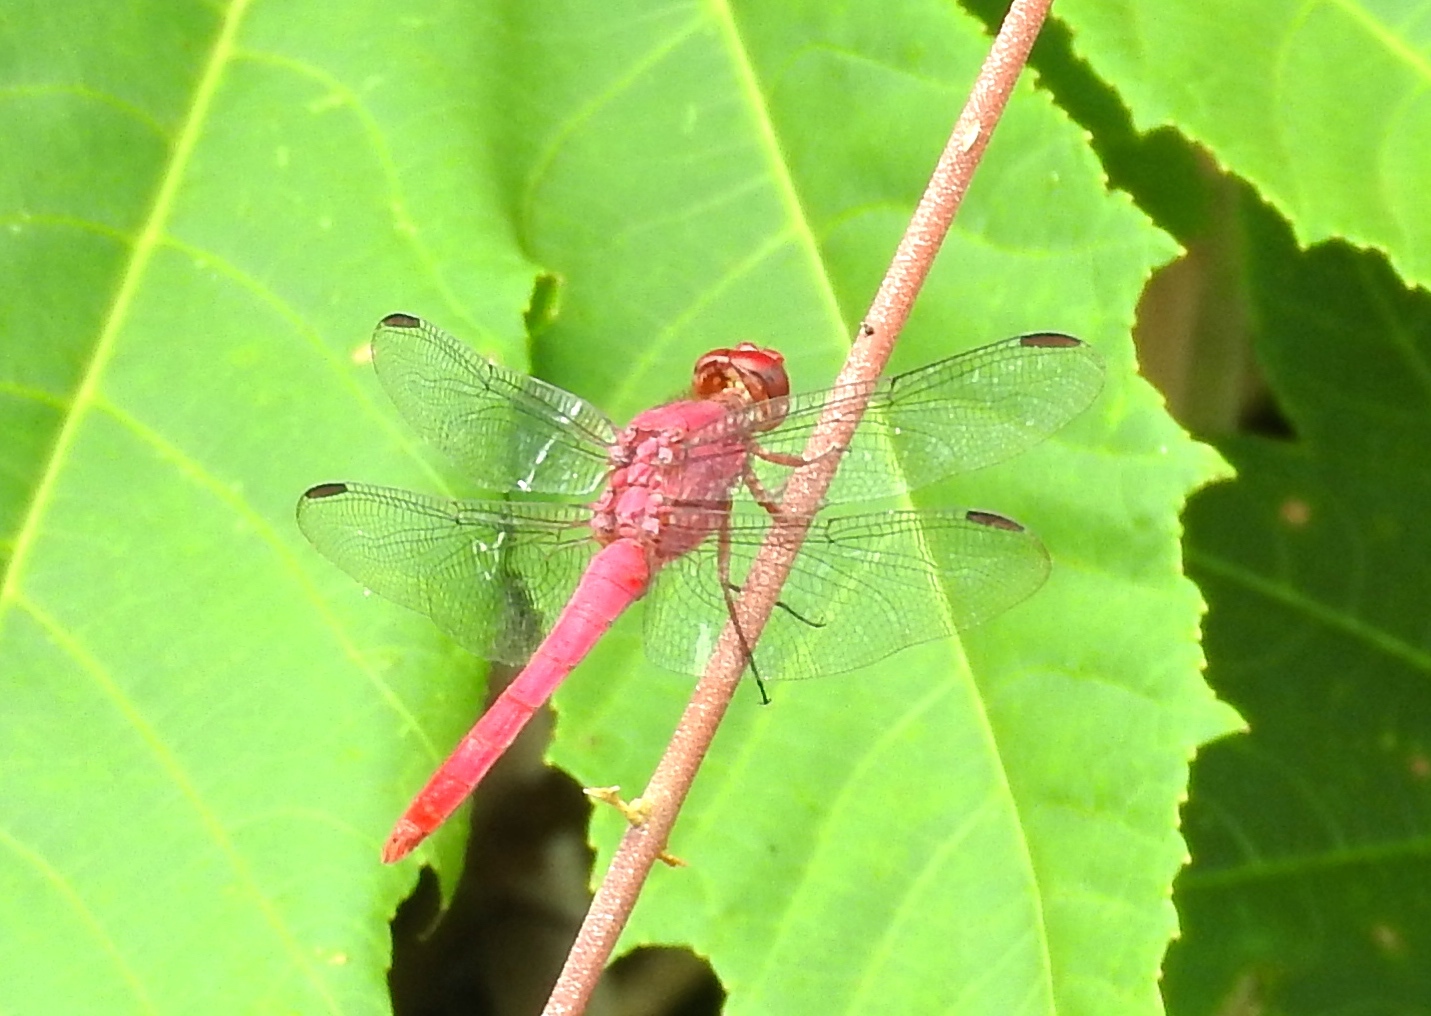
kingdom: Animalia
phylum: Arthropoda
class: Insecta
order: Odonata
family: Libellulidae
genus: Orthemis
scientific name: Orthemis discolor
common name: Carmine skimmer
